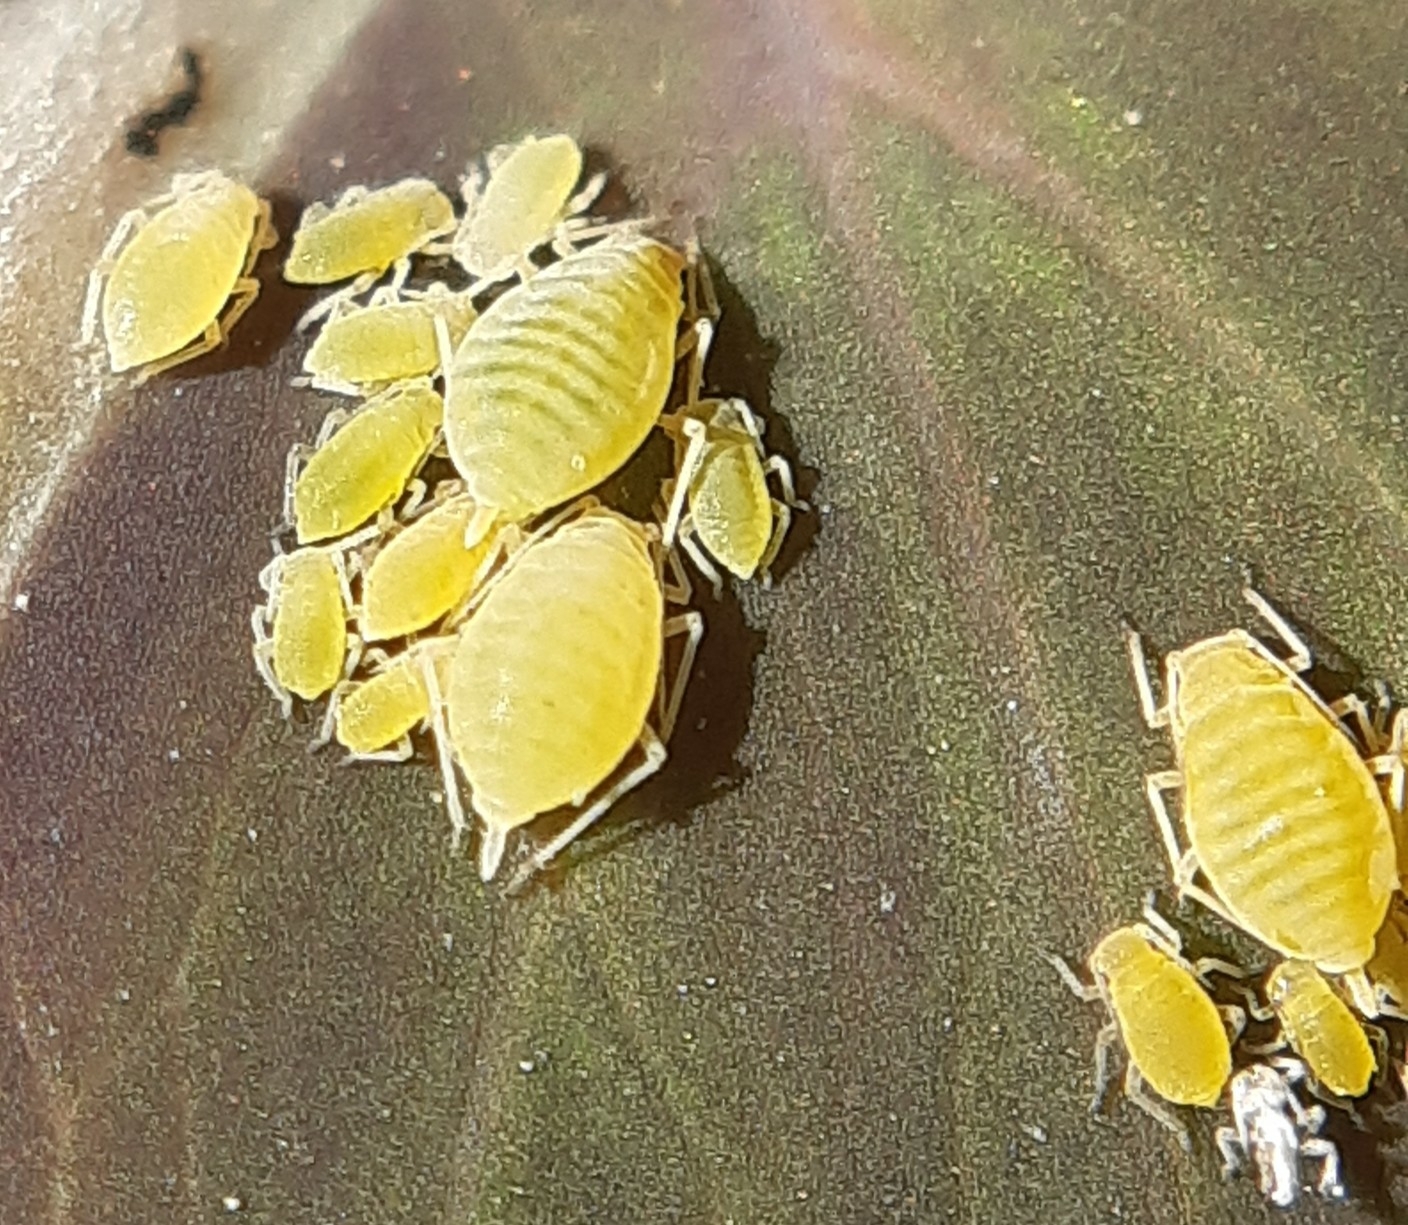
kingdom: Animalia
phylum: Arthropoda
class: Insecta
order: Hemiptera
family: Aphididae
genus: Longicaudus
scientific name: Longicaudus trirhodus
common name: Aphid
